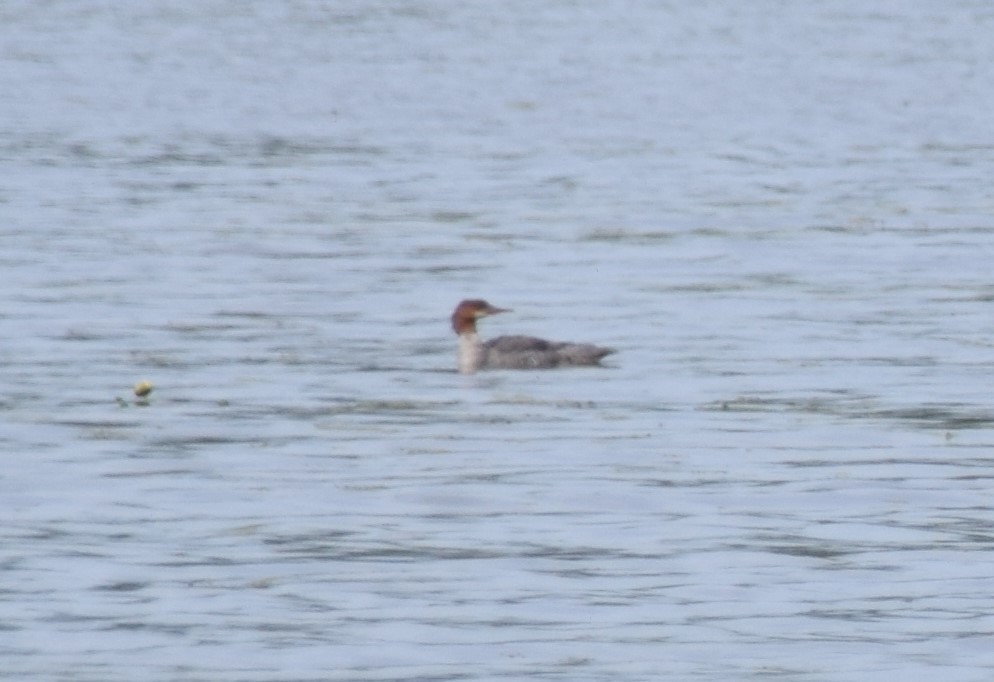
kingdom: Animalia
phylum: Chordata
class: Aves
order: Anseriformes
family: Anatidae
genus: Mergus
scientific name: Mergus merganser
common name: Common merganser
